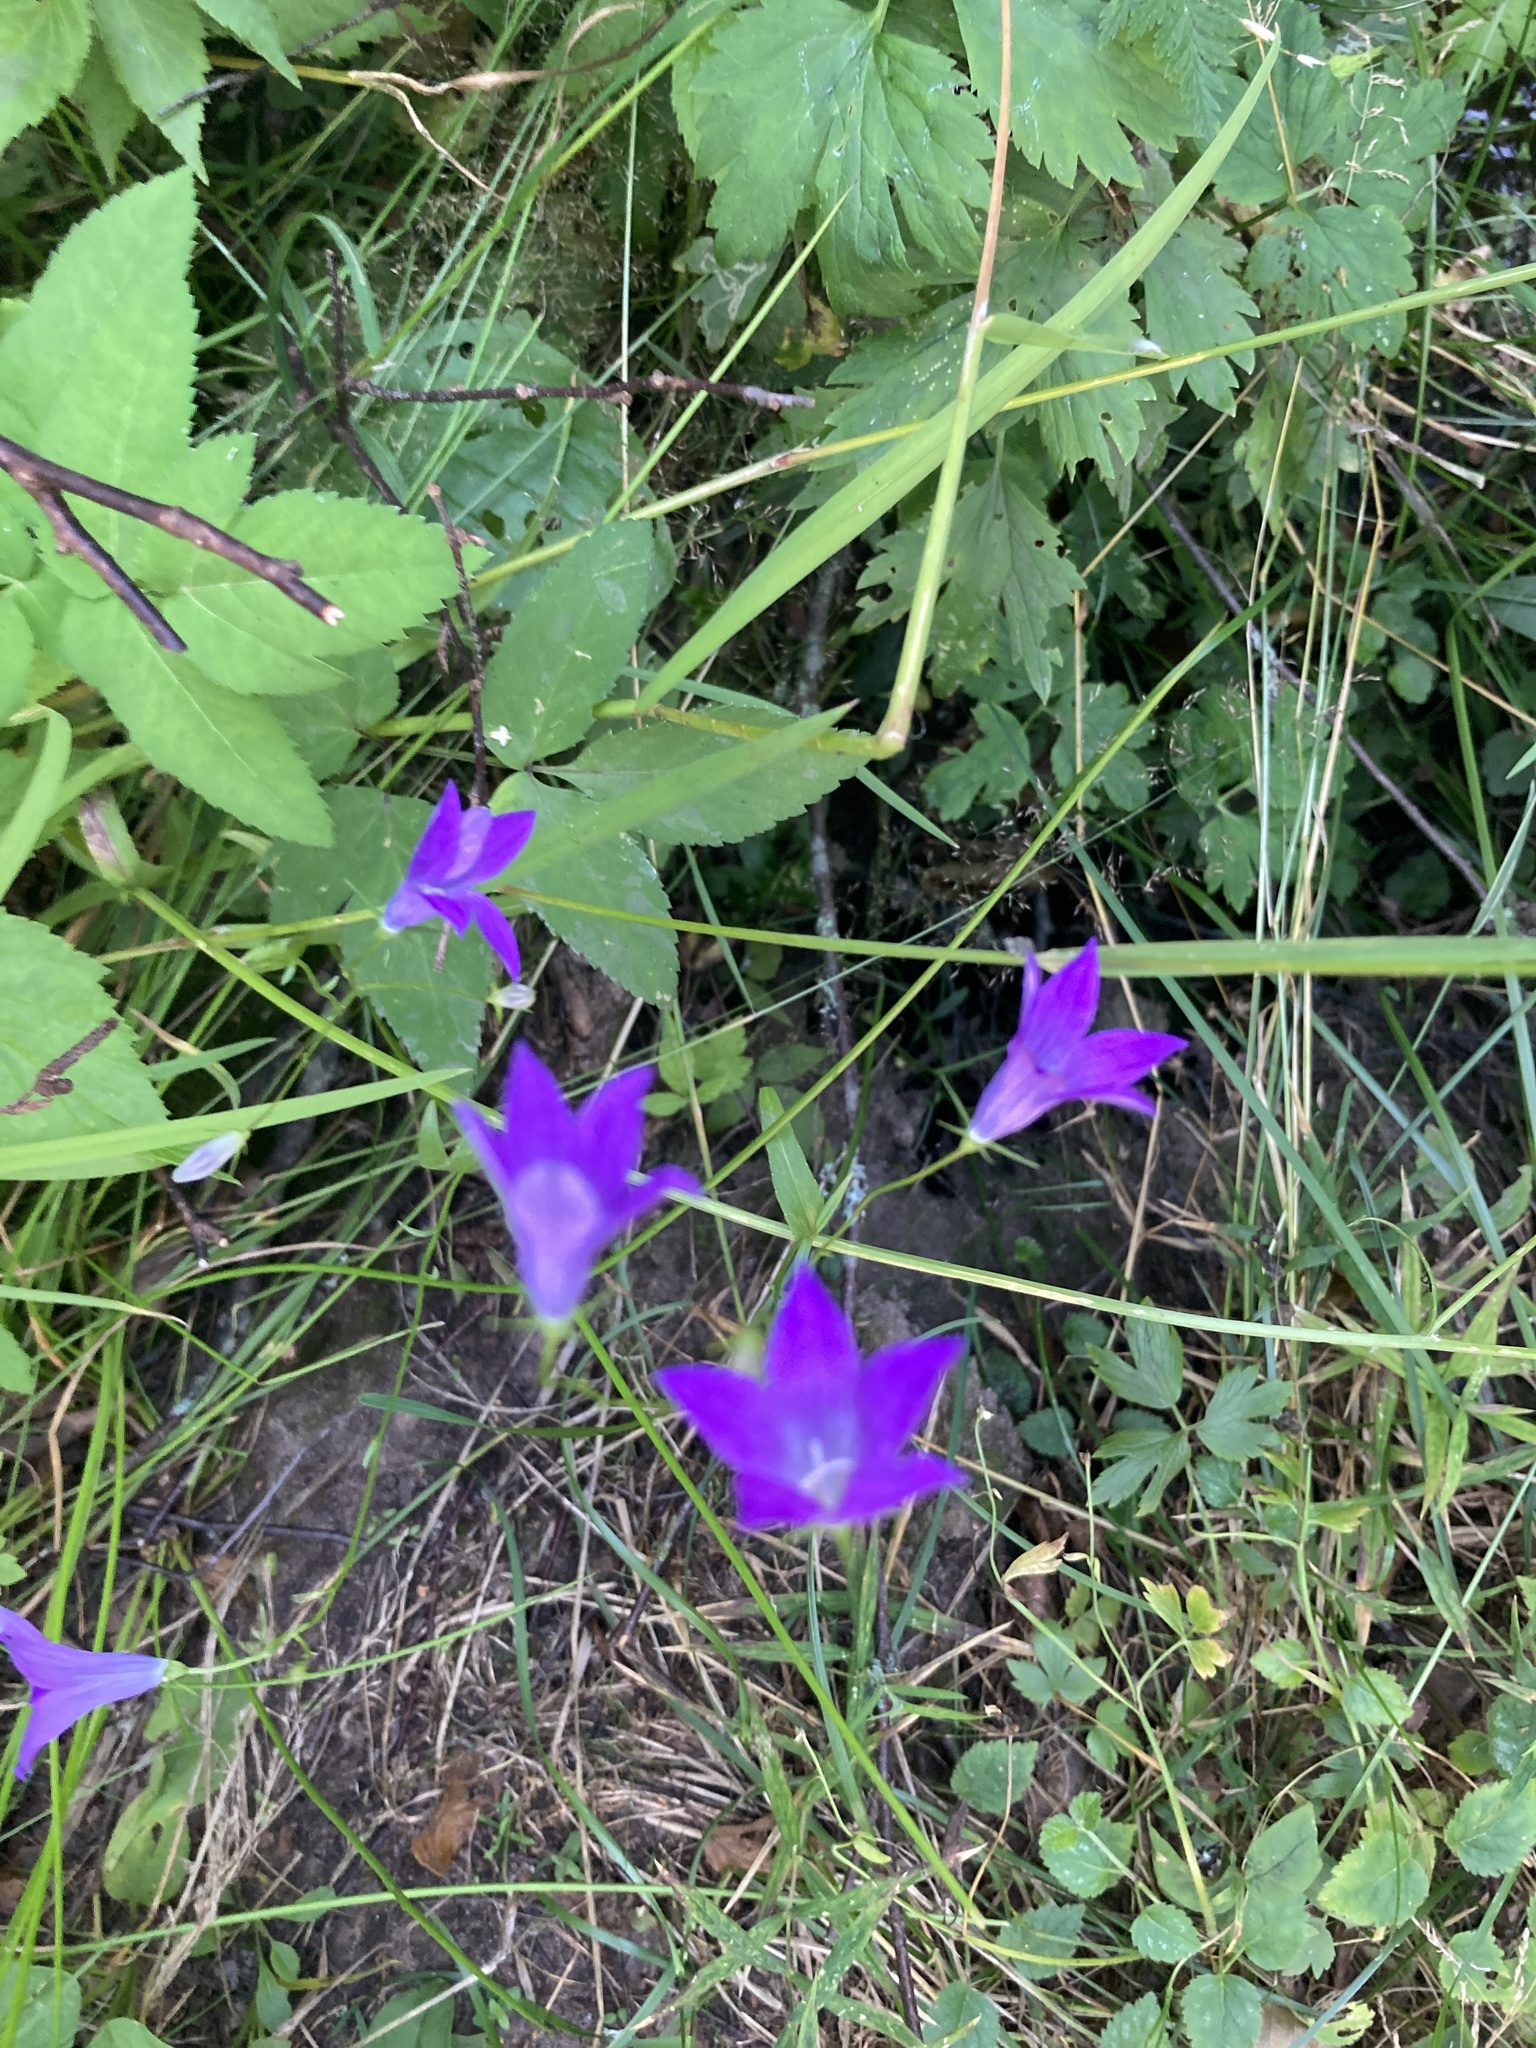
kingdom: Plantae
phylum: Tracheophyta
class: Magnoliopsida
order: Asterales
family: Campanulaceae
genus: Campanula
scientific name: Campanula patula
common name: Spreading bellflower
